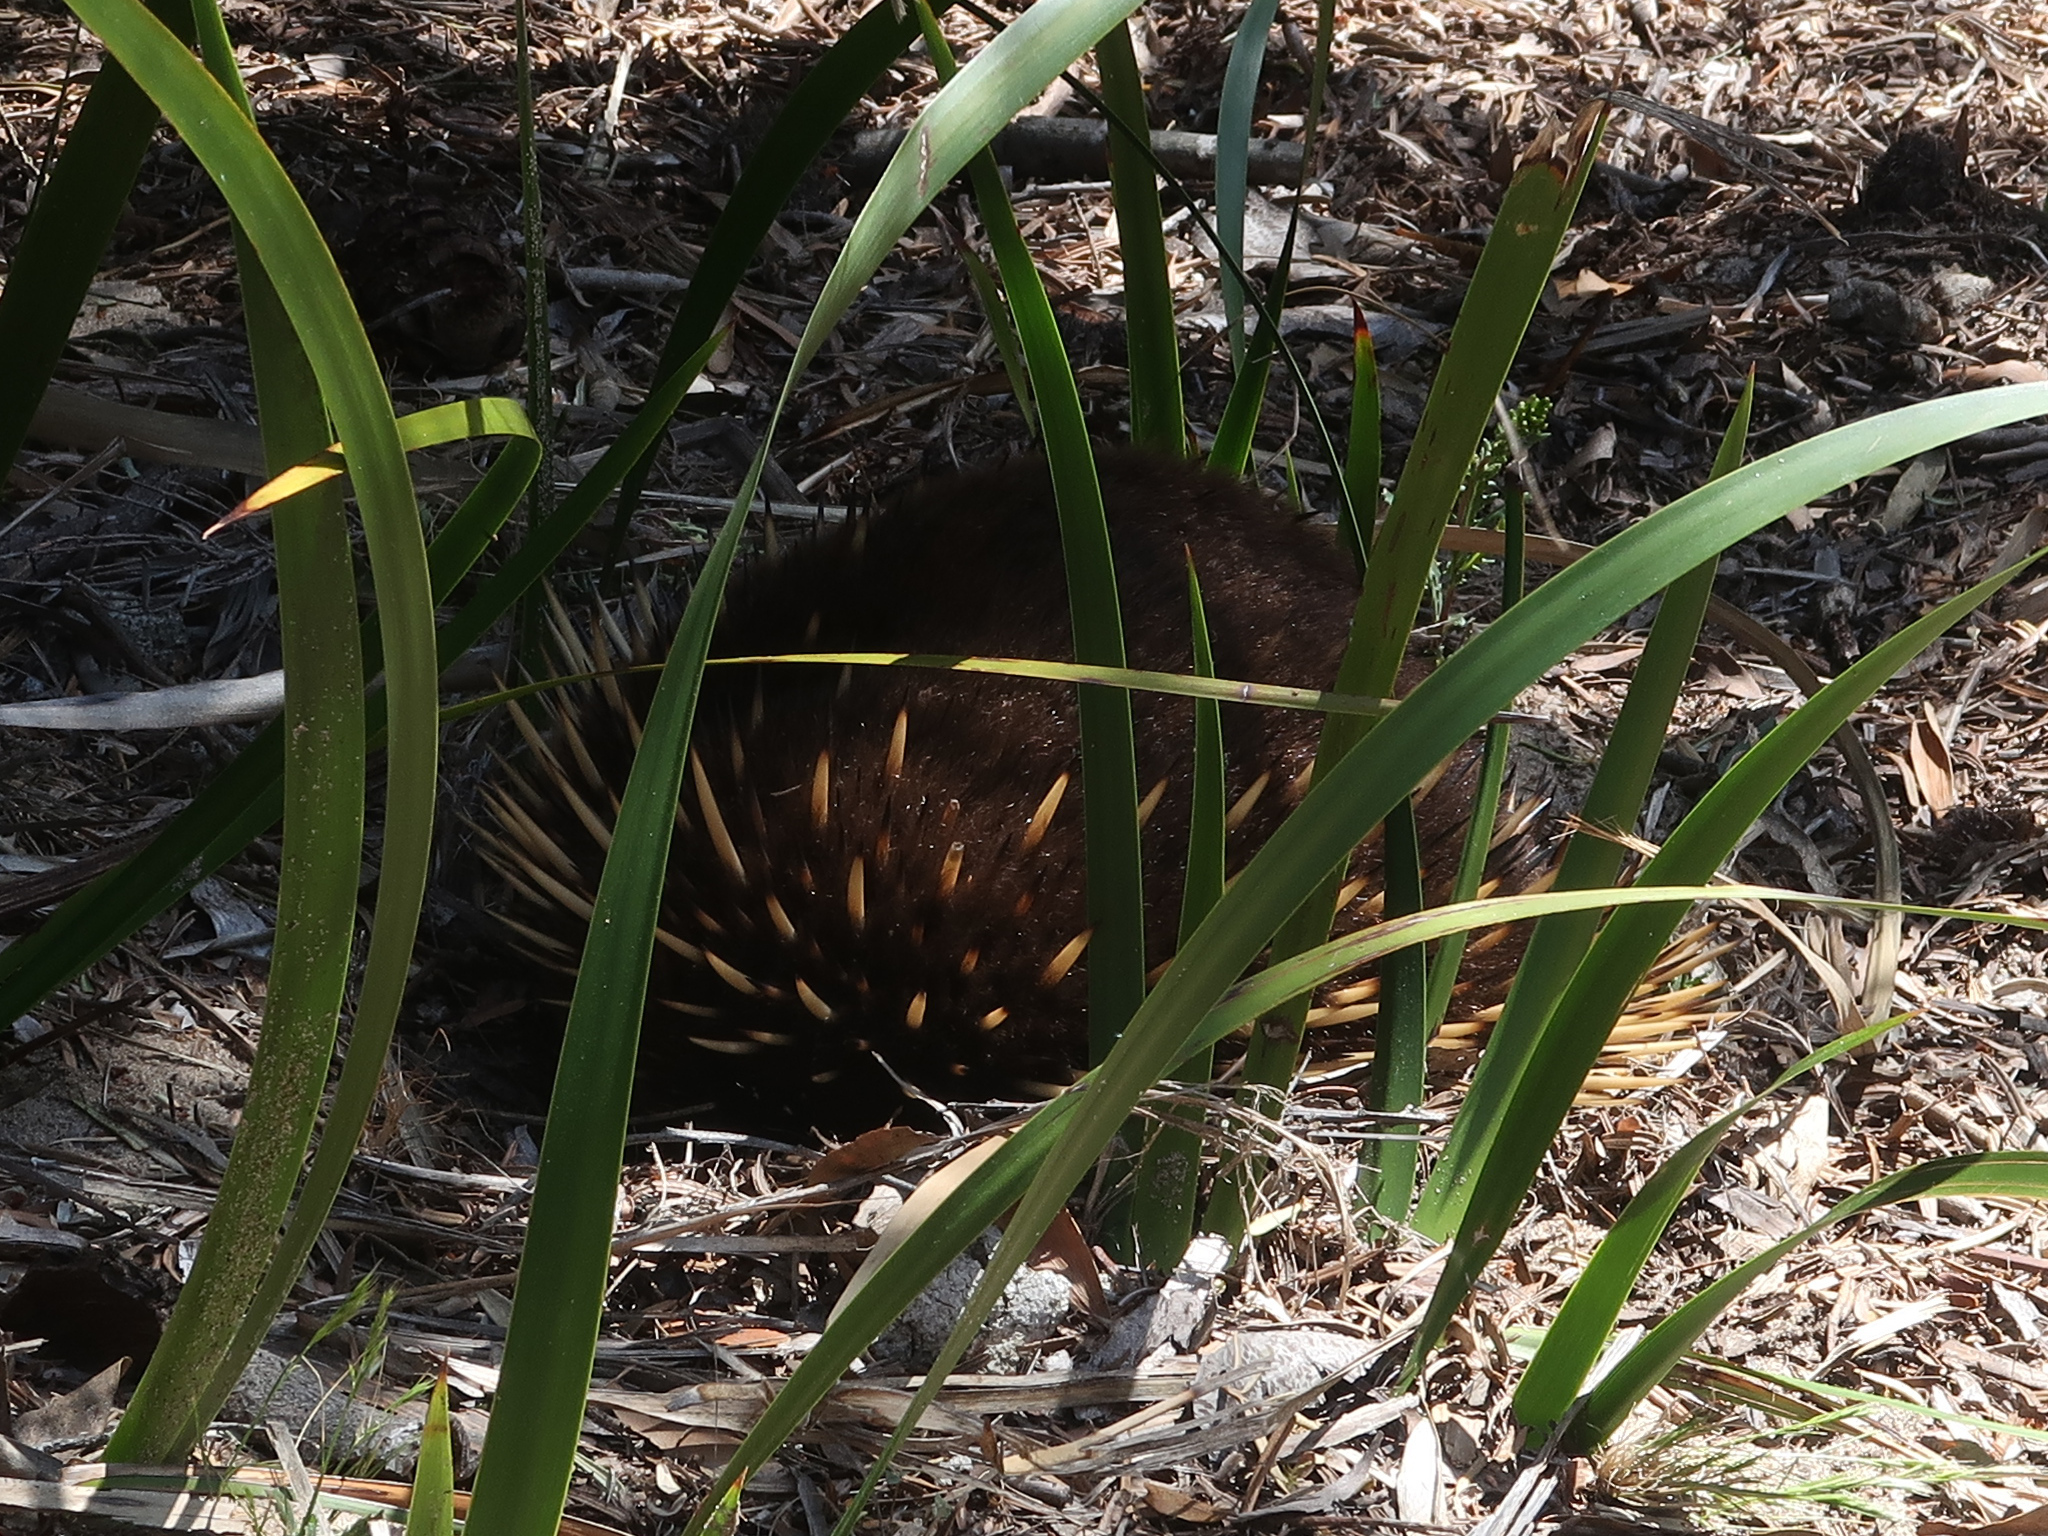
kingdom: Animalia
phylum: Chordata
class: Mammalia
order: Monotremata
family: Tachyglossidae
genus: Tachyglossus
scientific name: Tachyglossus aculeatus
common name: Short-beaked echidna
